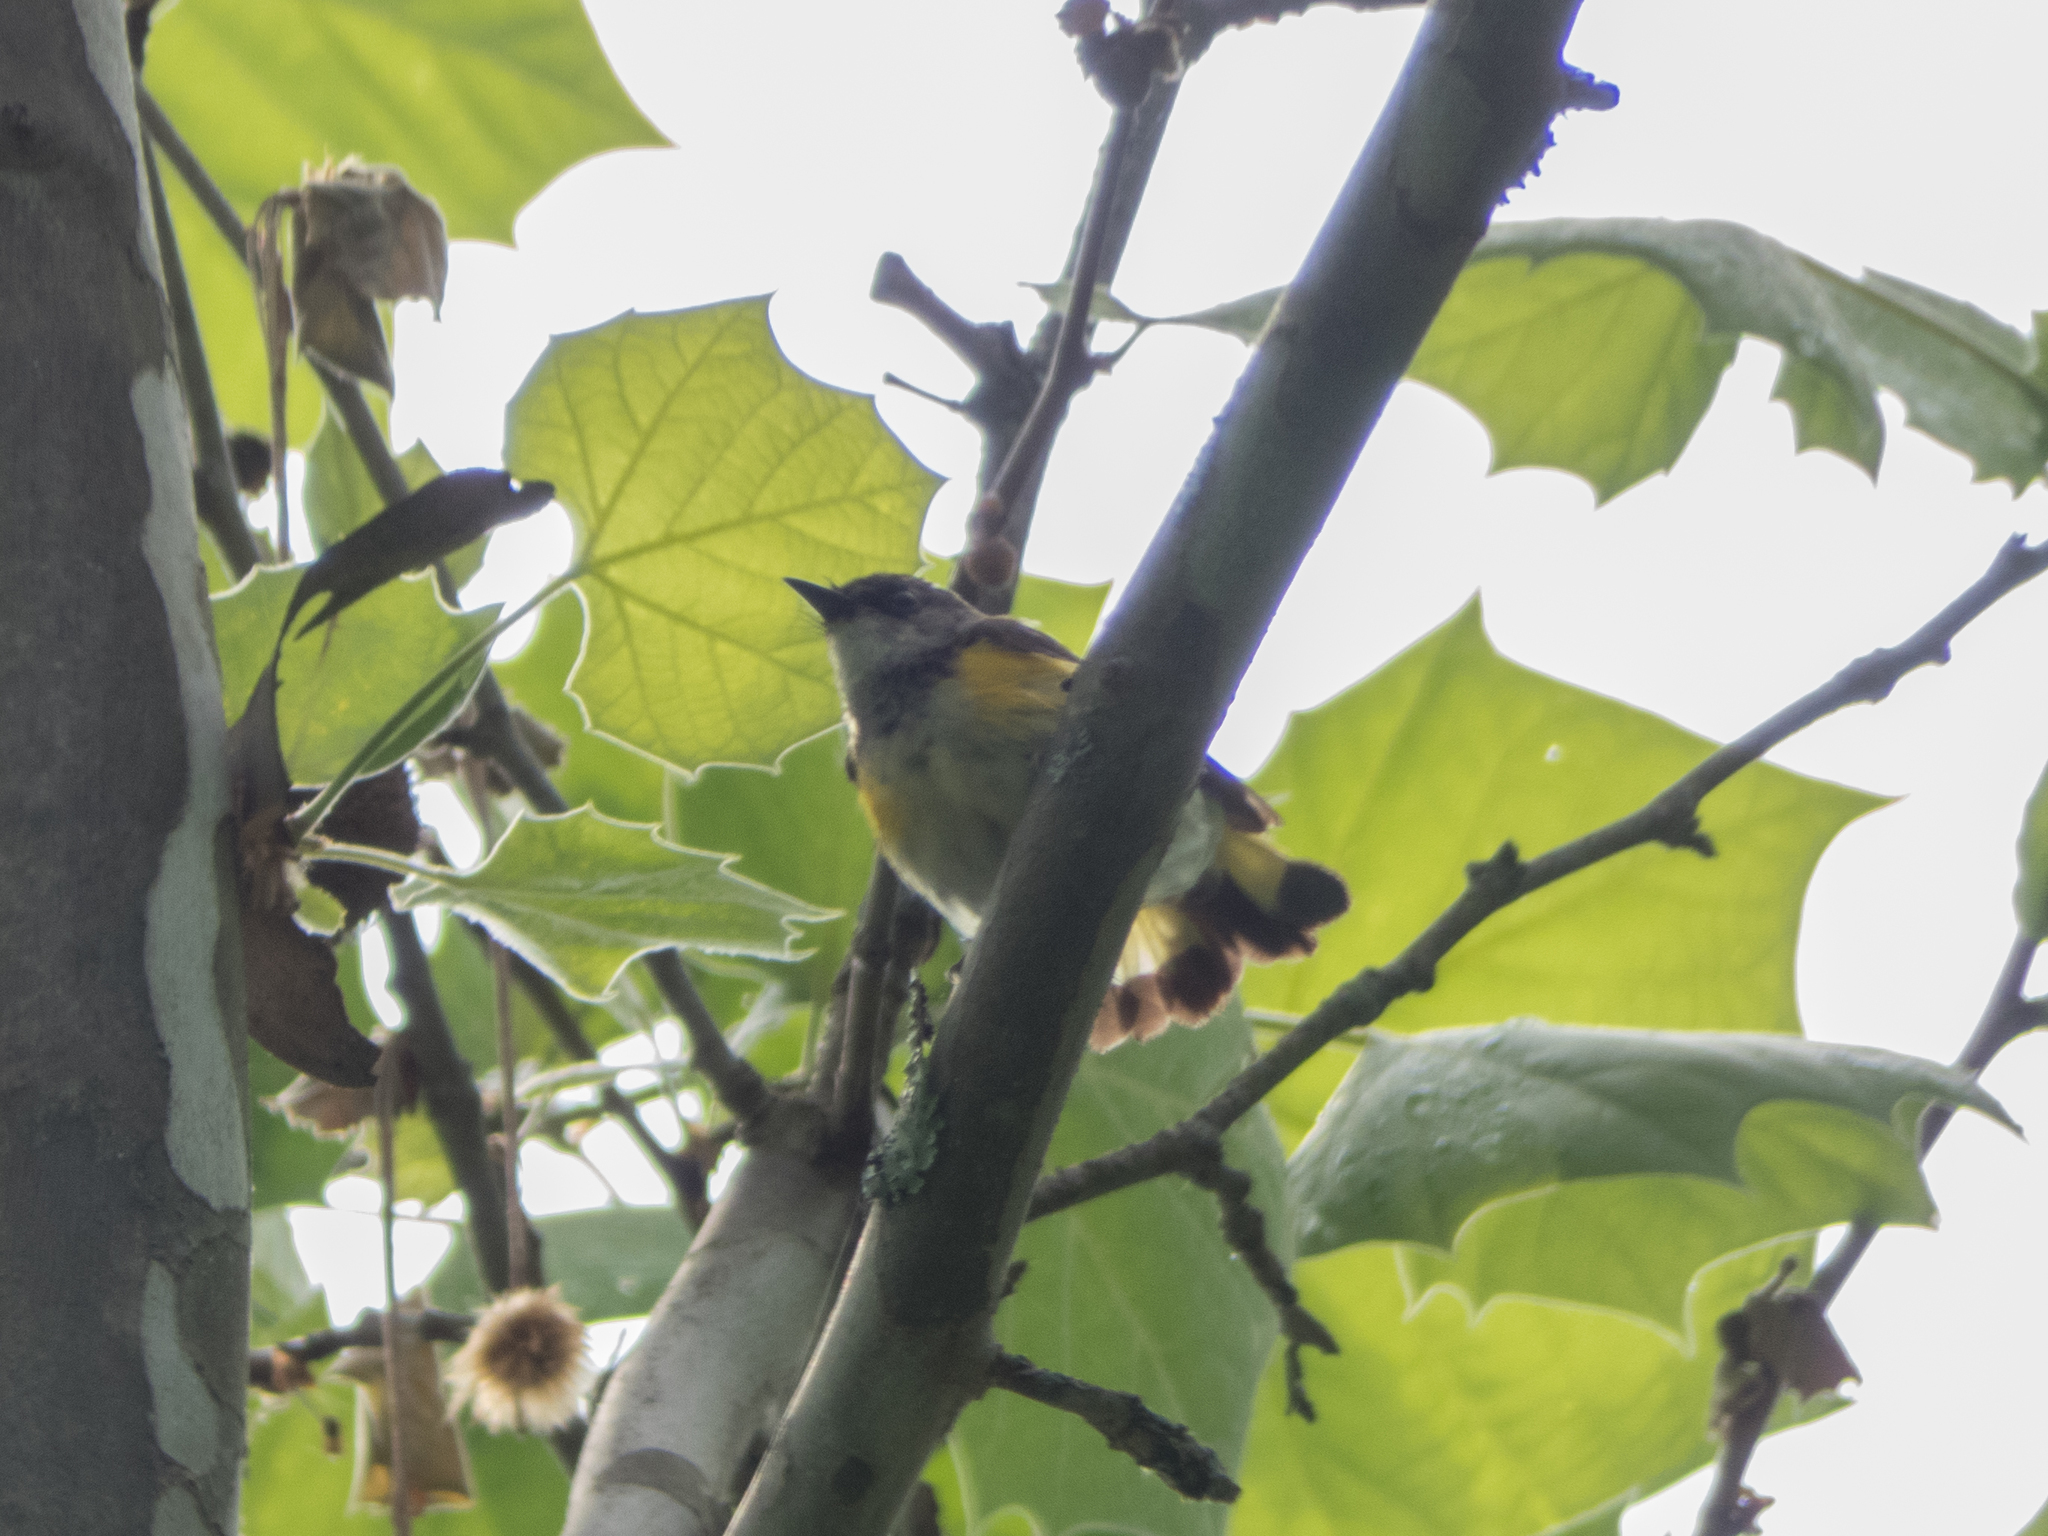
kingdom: Animalia
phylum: Chordata
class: Aves
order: Passeriformes
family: Parulidae
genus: Setophaga
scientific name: Setophaga ruticilla
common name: American redstart
